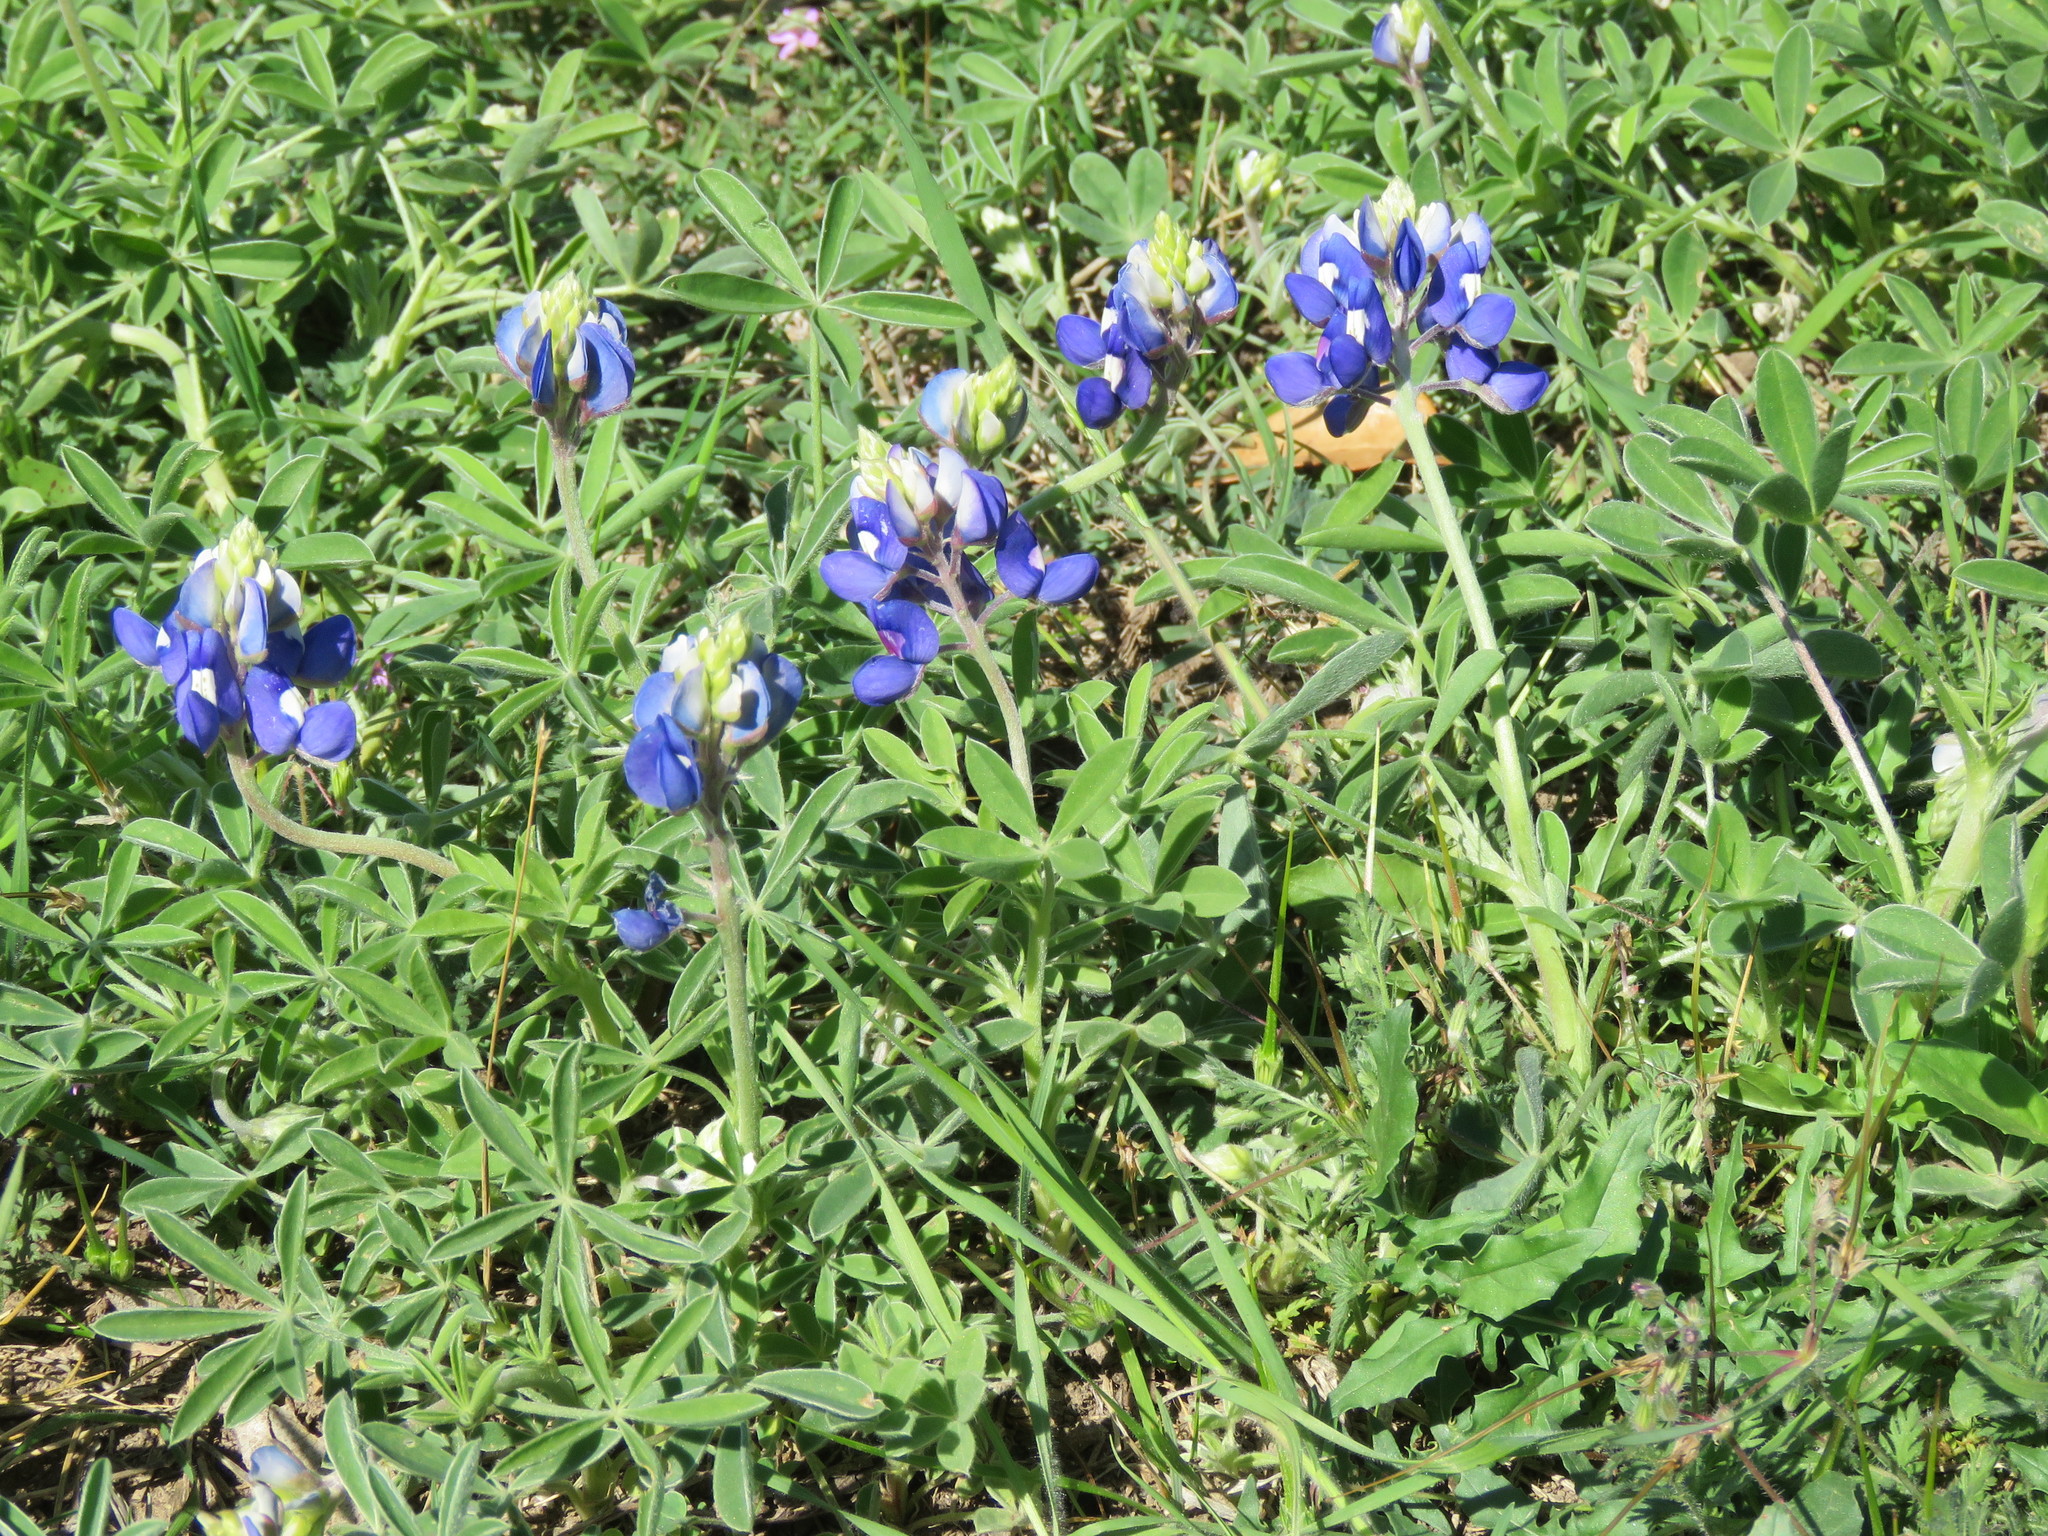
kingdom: Plantae
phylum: Tracheophyta
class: Magnoliopsida
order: Fabales
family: Fabaceae
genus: Lupinus
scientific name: Lupinus texensis
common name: Texas bluebonnet
